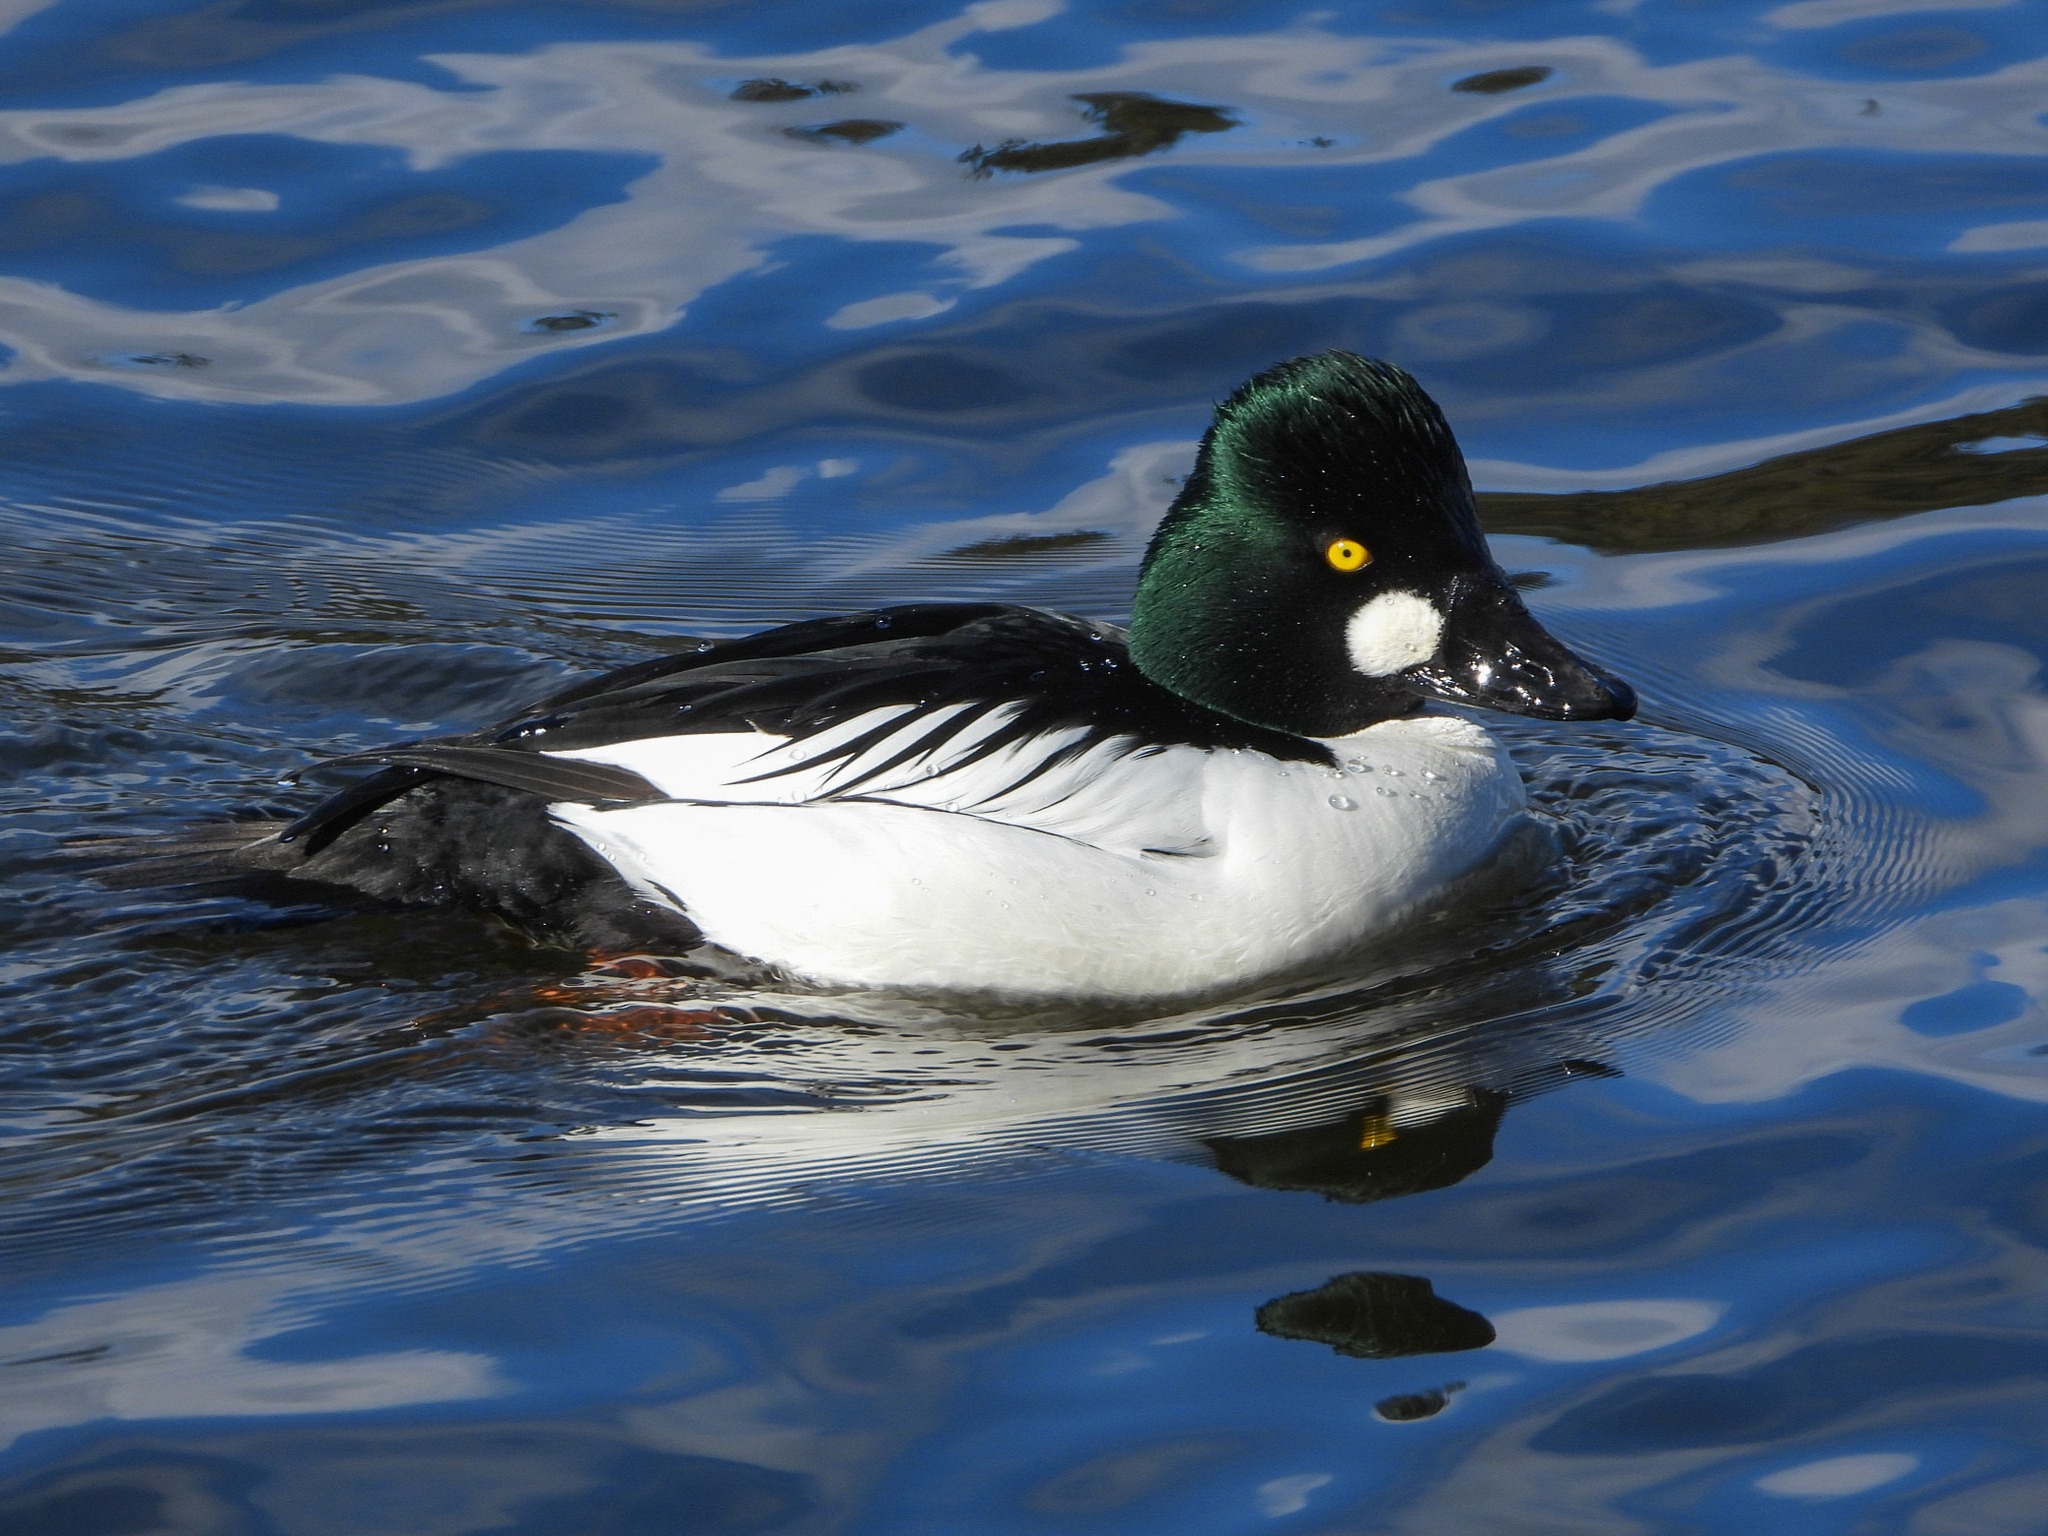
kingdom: Animalia
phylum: Chordata
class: Aves
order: Anseriformes
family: Anatidae
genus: Bucephala
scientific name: Bucephala clangula
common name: Common goldeneye
